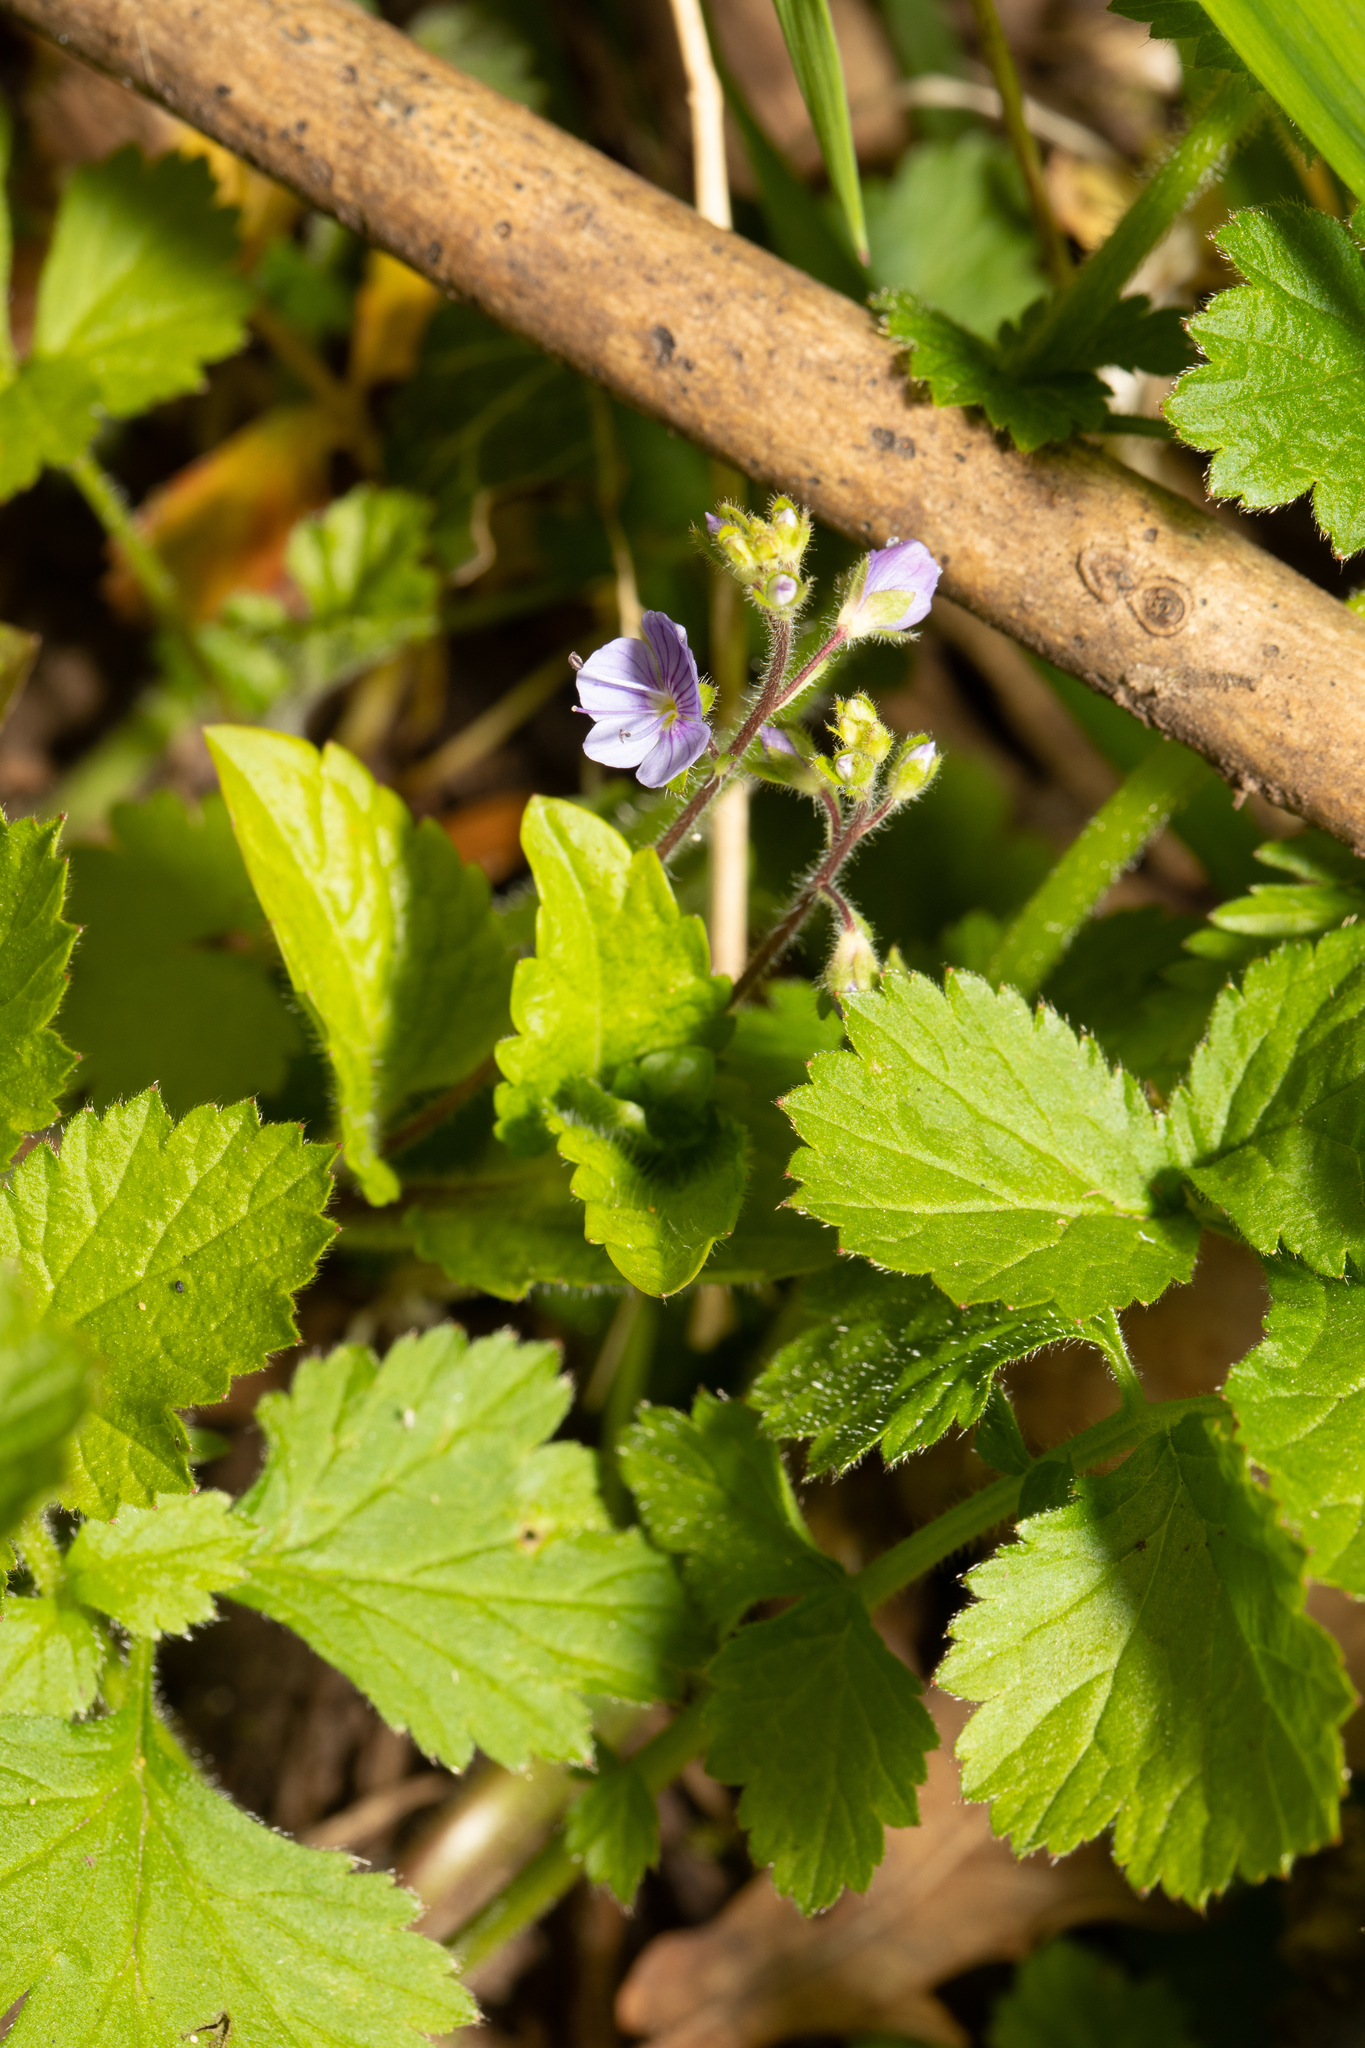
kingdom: Plantae
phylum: Tracheophyta
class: Magnoliopsida
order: Lamiales
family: Plantaginaceae
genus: Veronica
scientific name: Veronica montana
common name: Wood speedwell
